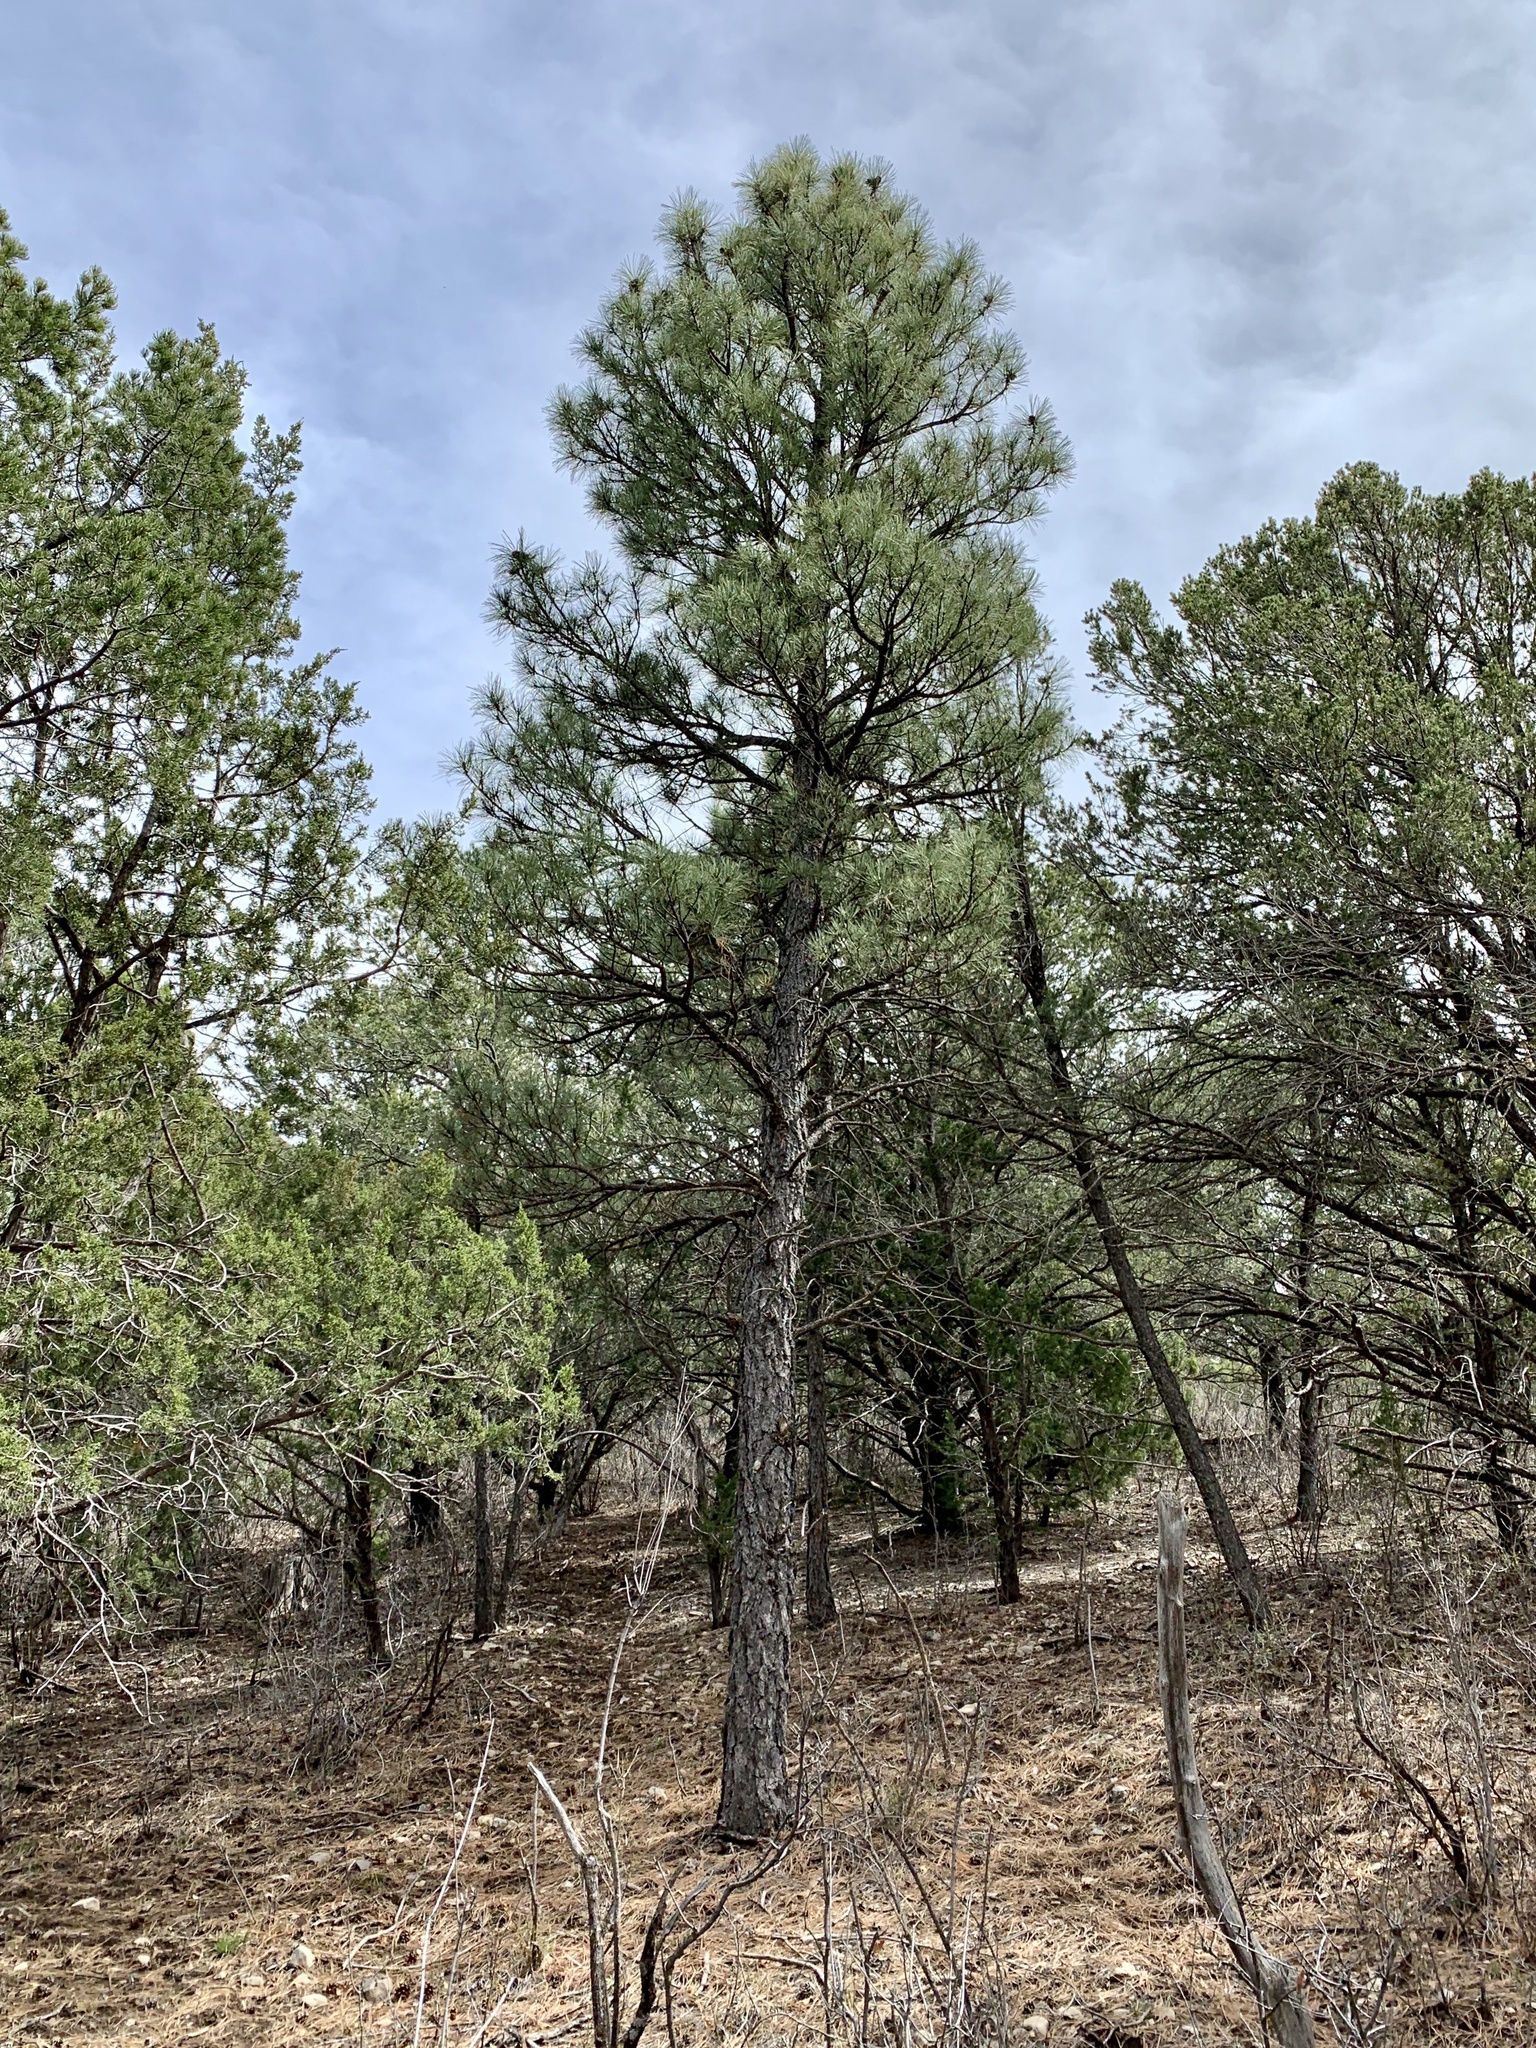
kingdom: Plantae
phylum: Tracheophyta
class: Pinopsida
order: Pinales
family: Pinaceae
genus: Pinus
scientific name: Pinus ponderosa
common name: Western yellow-pine
